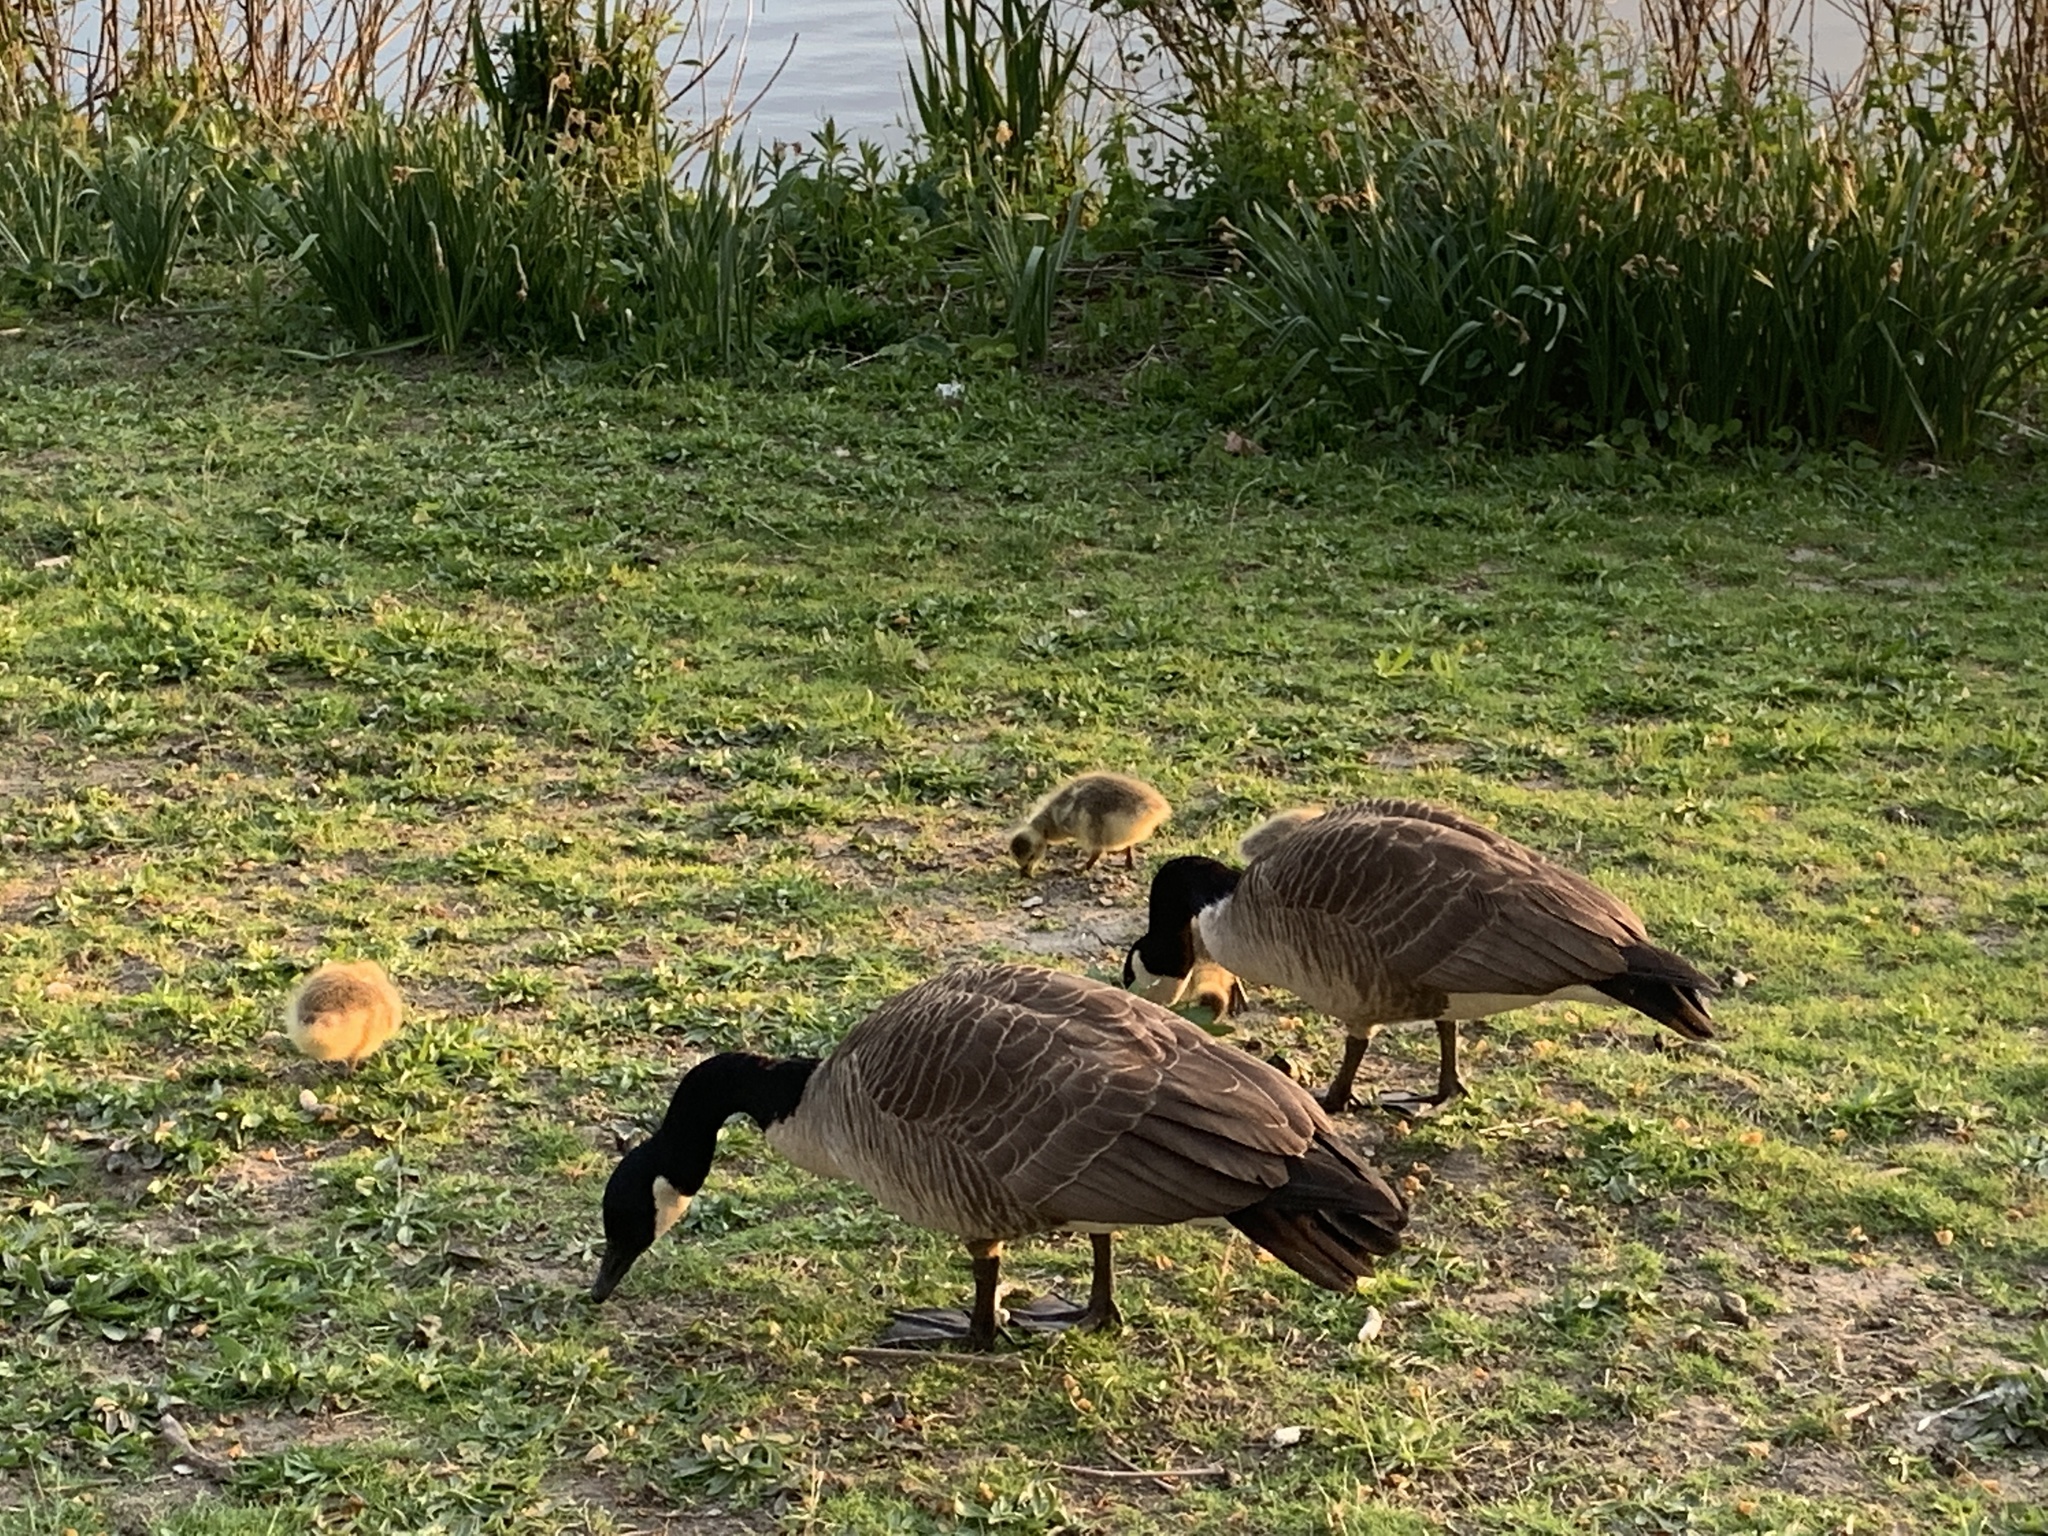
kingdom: Animalia
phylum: Chordata
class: Aves
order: Anseriformes
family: Anatidae
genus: Branta
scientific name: Branta canadensis
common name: Canada goose
